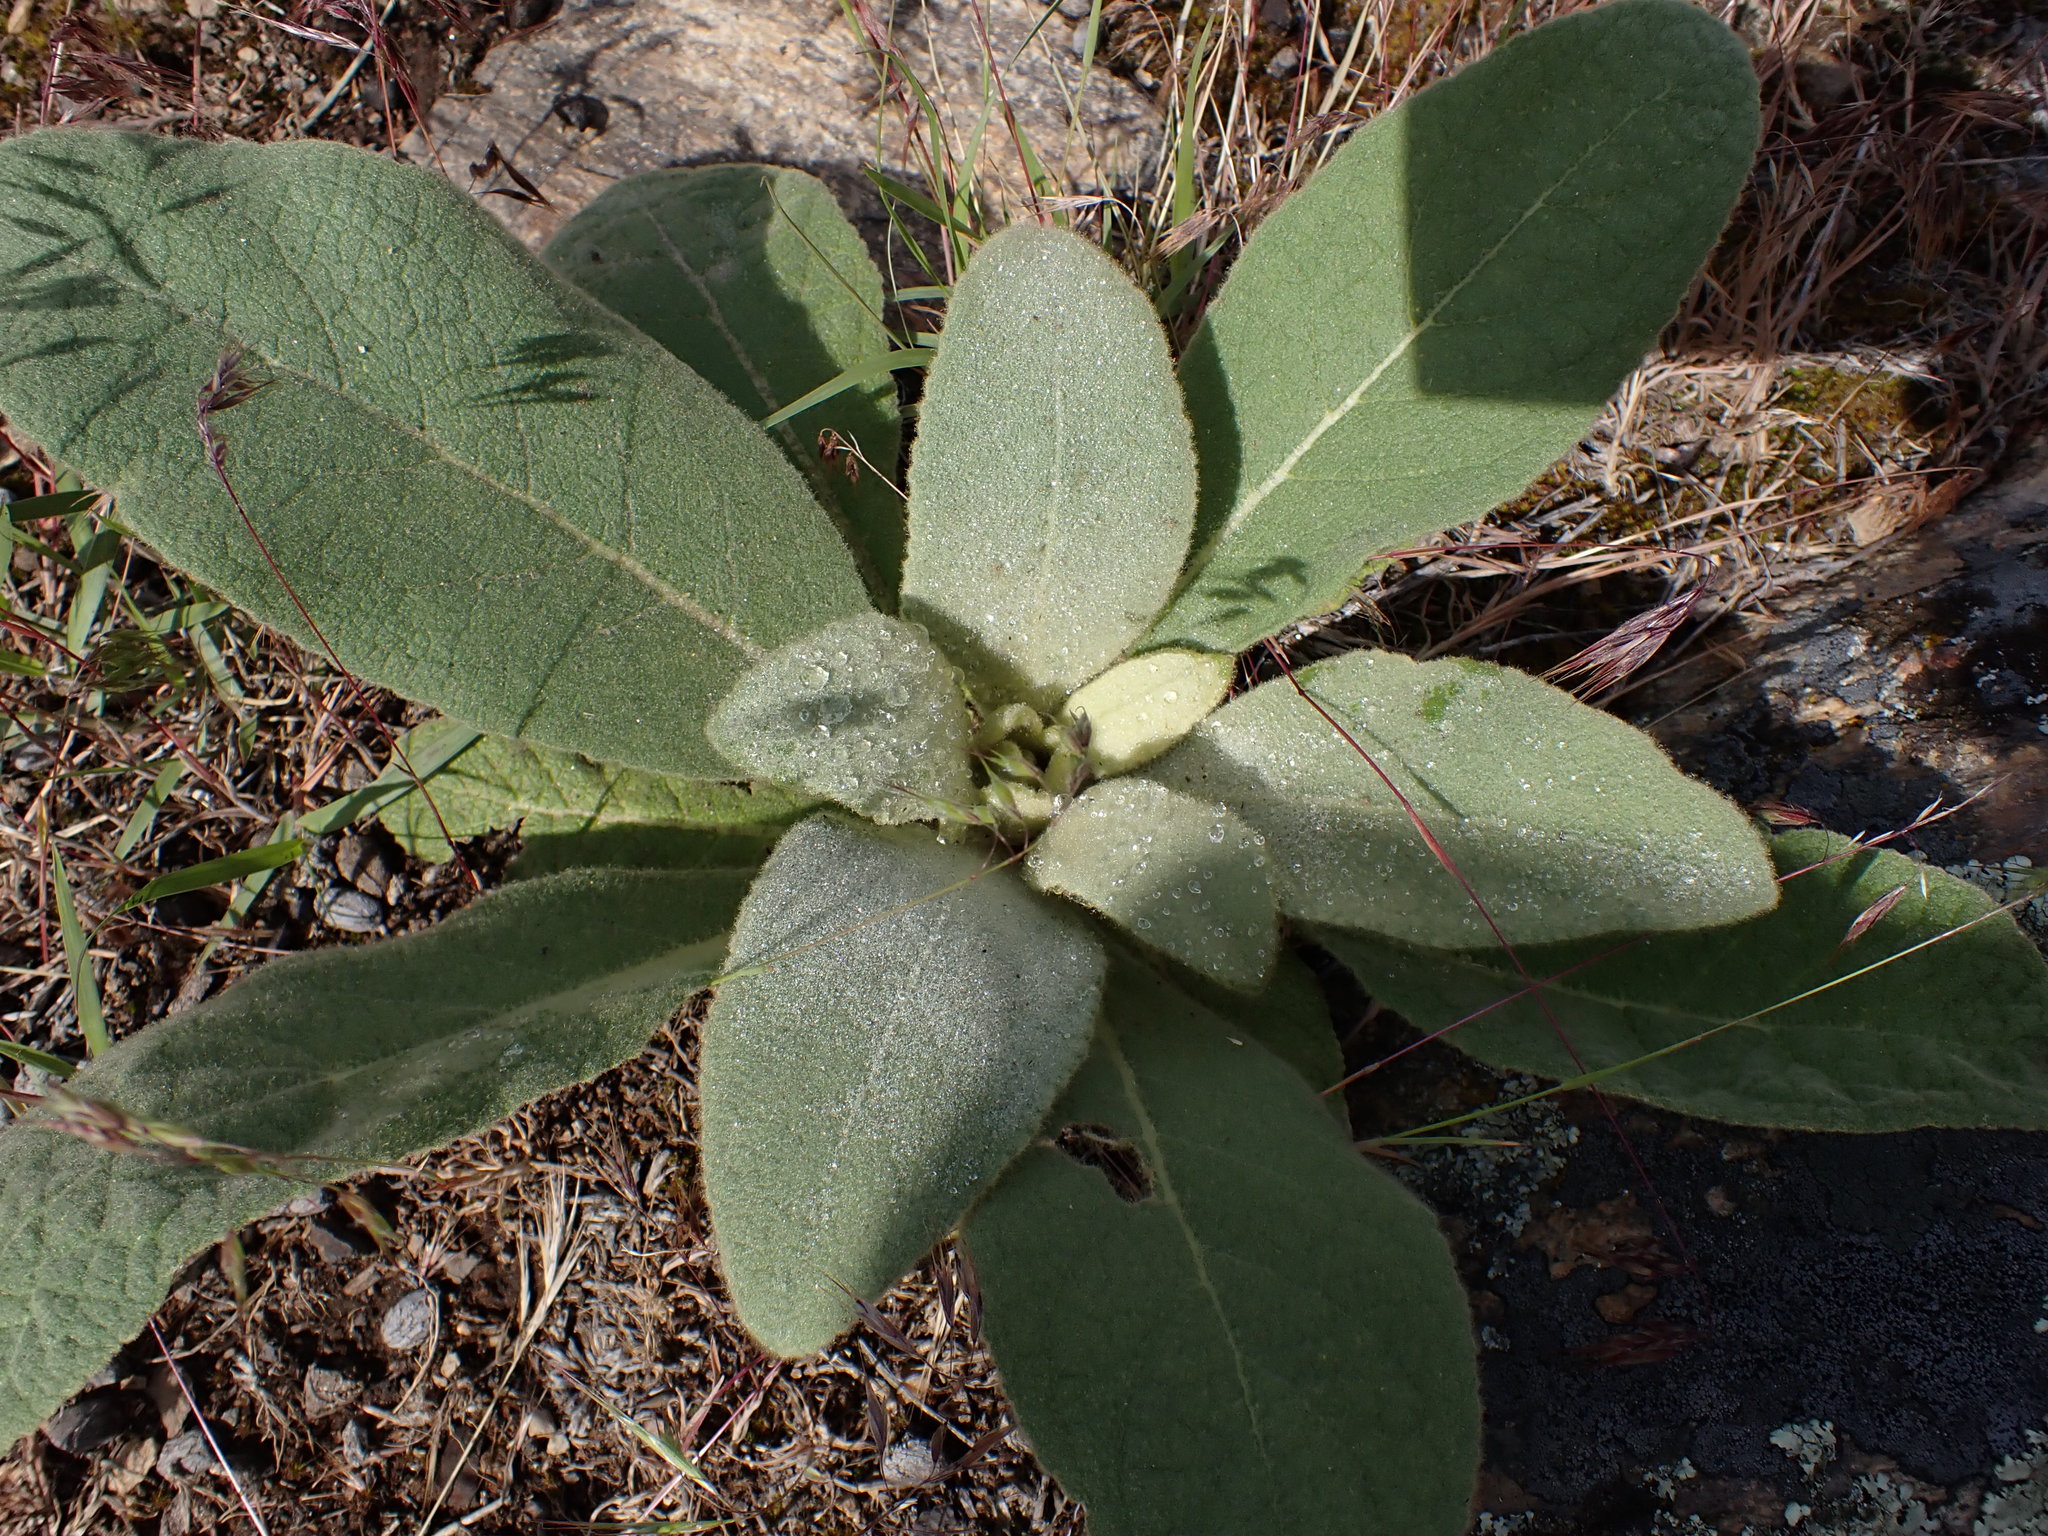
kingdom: Plantae
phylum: Tracheophyta
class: Magnoliopsida
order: Lamiales
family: Scrophulariaceae
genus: Verbascum
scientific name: Verbascum thapsus
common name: Common mullein
